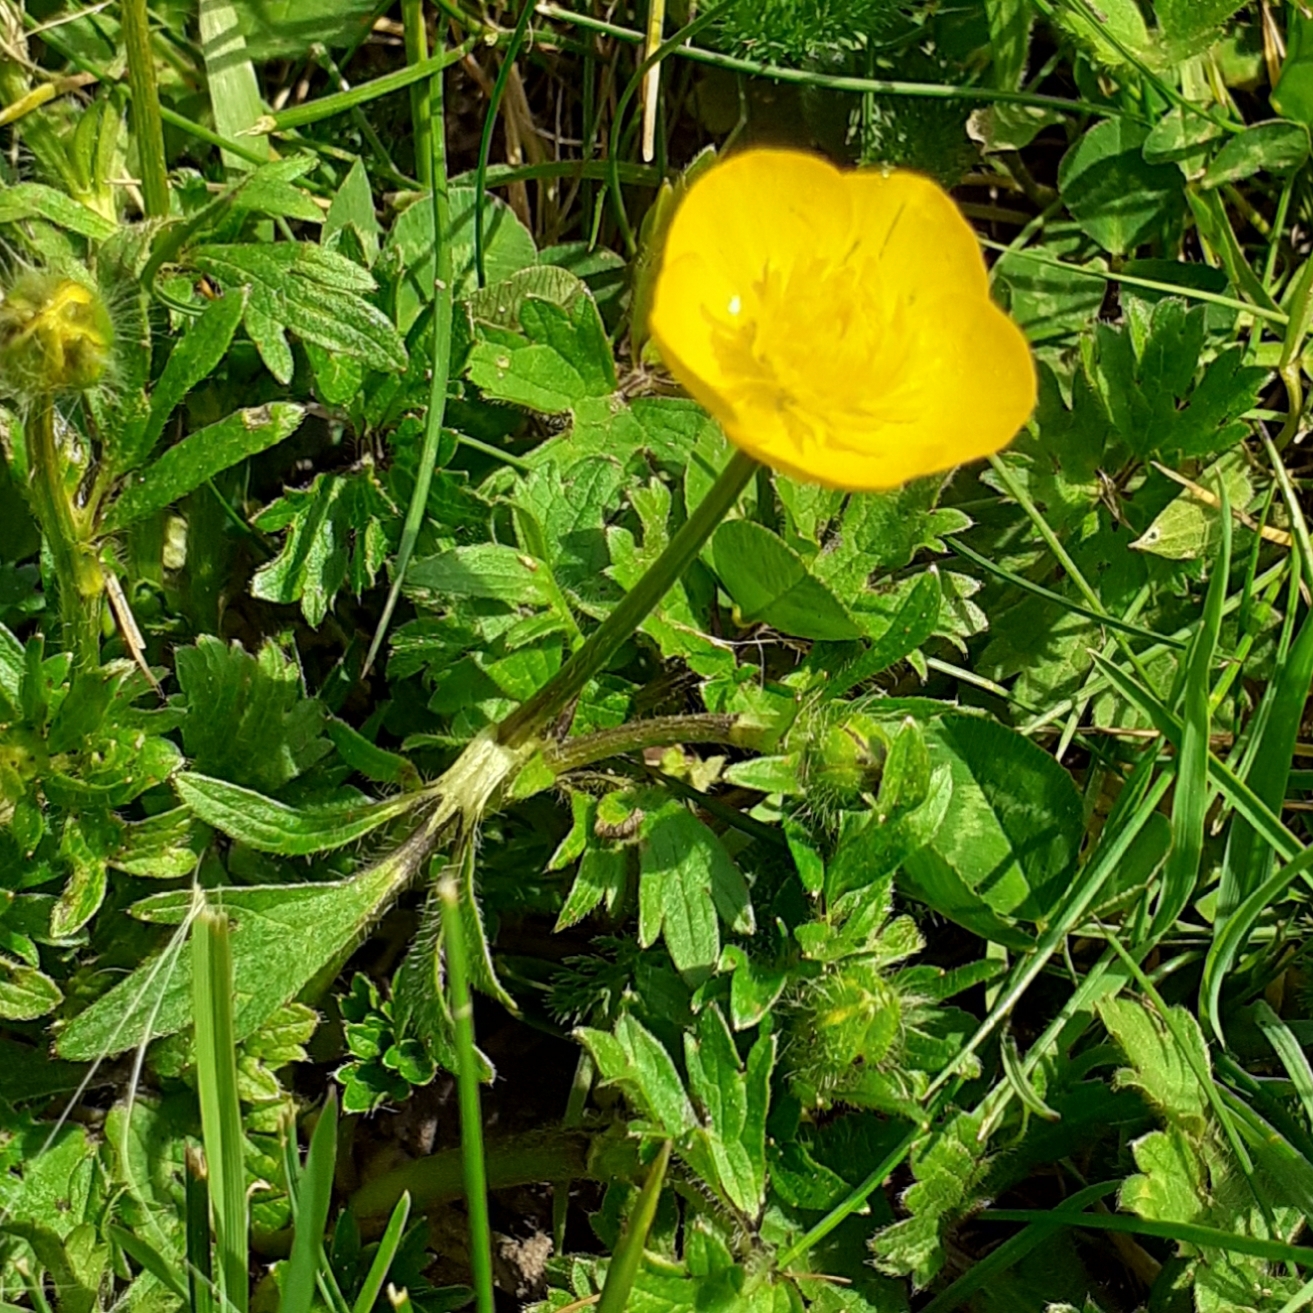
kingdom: Plantae
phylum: Tracheophyta
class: Magnoliopsida
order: Ranunculales
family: Ranunculaceae
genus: Ranunculus
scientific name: Ranunculus bulbosus
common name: Bulbous buttercup
